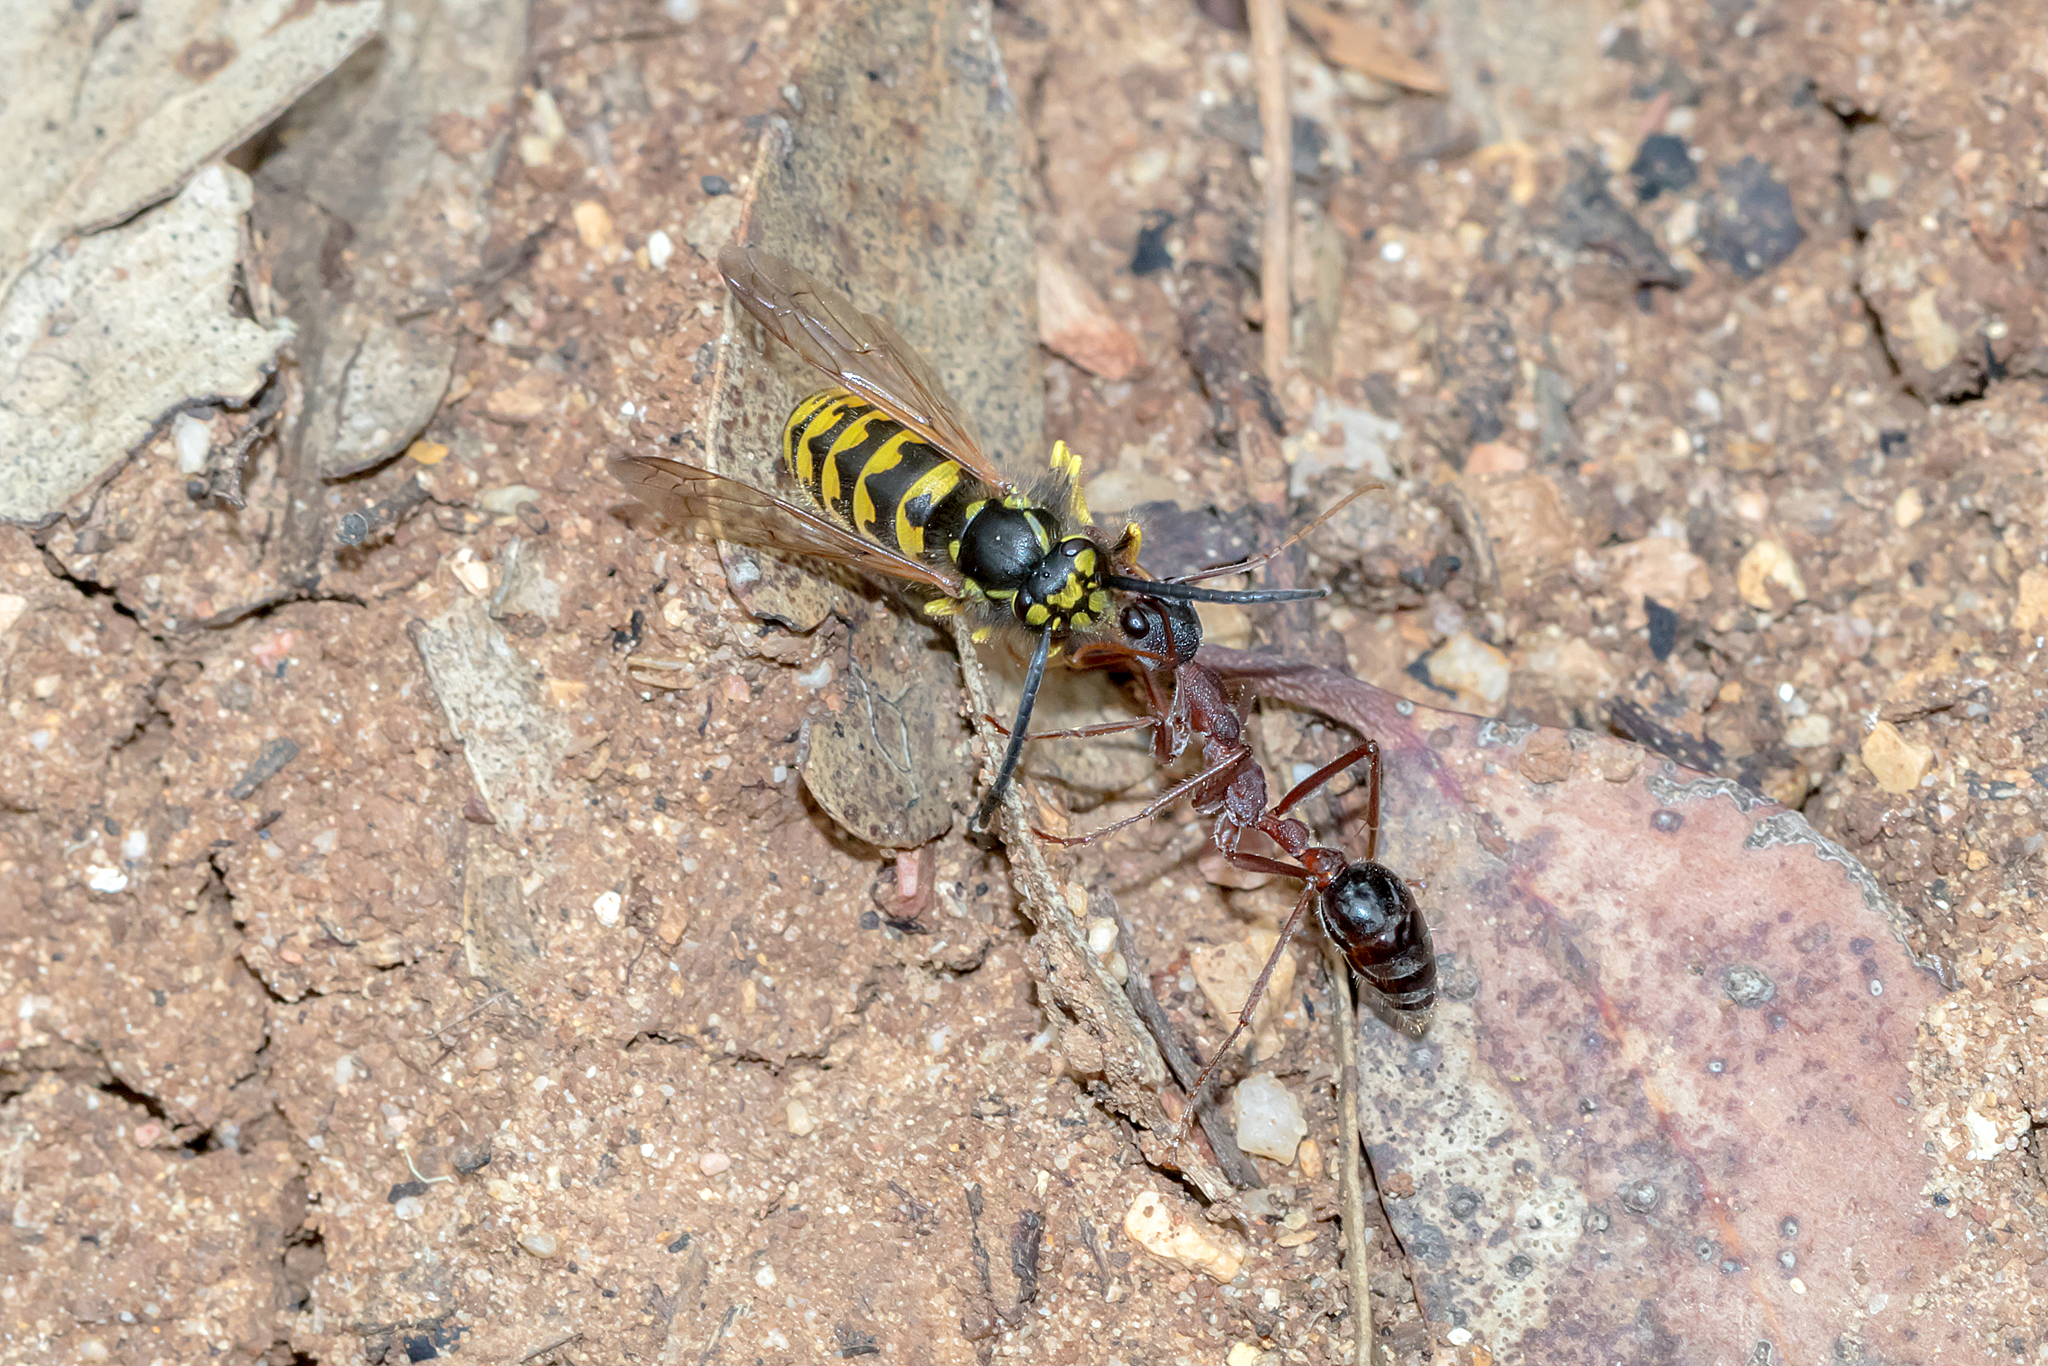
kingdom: Animalia
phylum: Arthropoda
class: Insecta
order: Hymenoptera
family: Vespidae
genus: Vespula
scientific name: Vespula germanica
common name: German wasp
